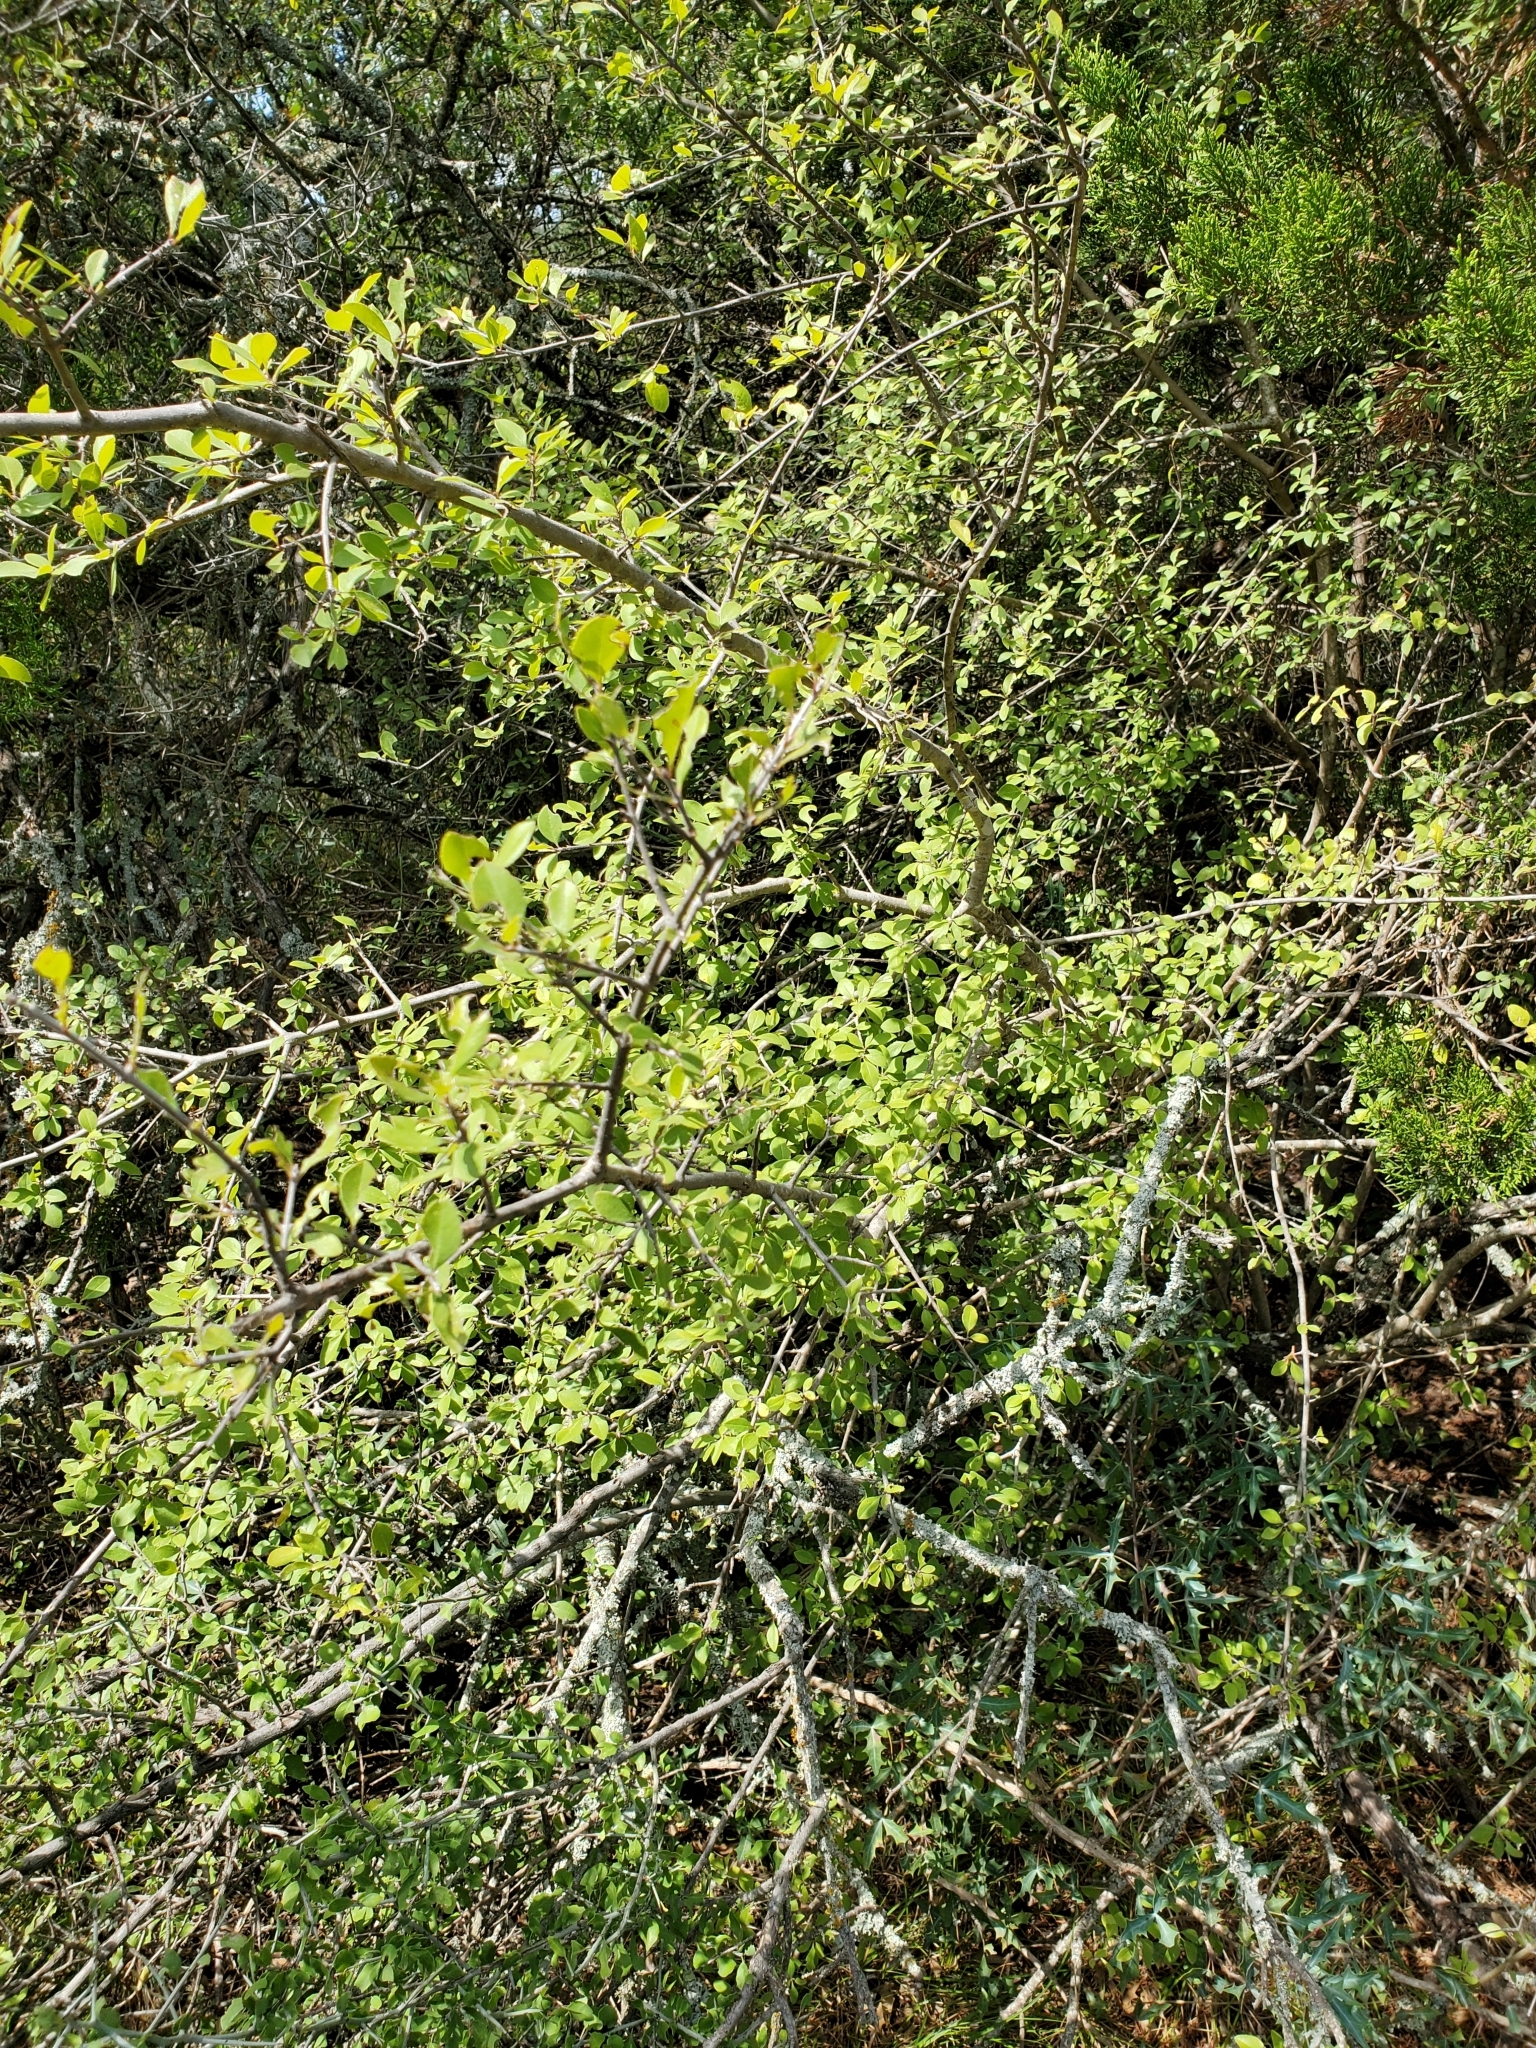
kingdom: Plantae
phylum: Tracheophyta
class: Magnoliopsida
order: Lamiales
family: Oleaceae
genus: Forestiera
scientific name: Forestiera pubescens
